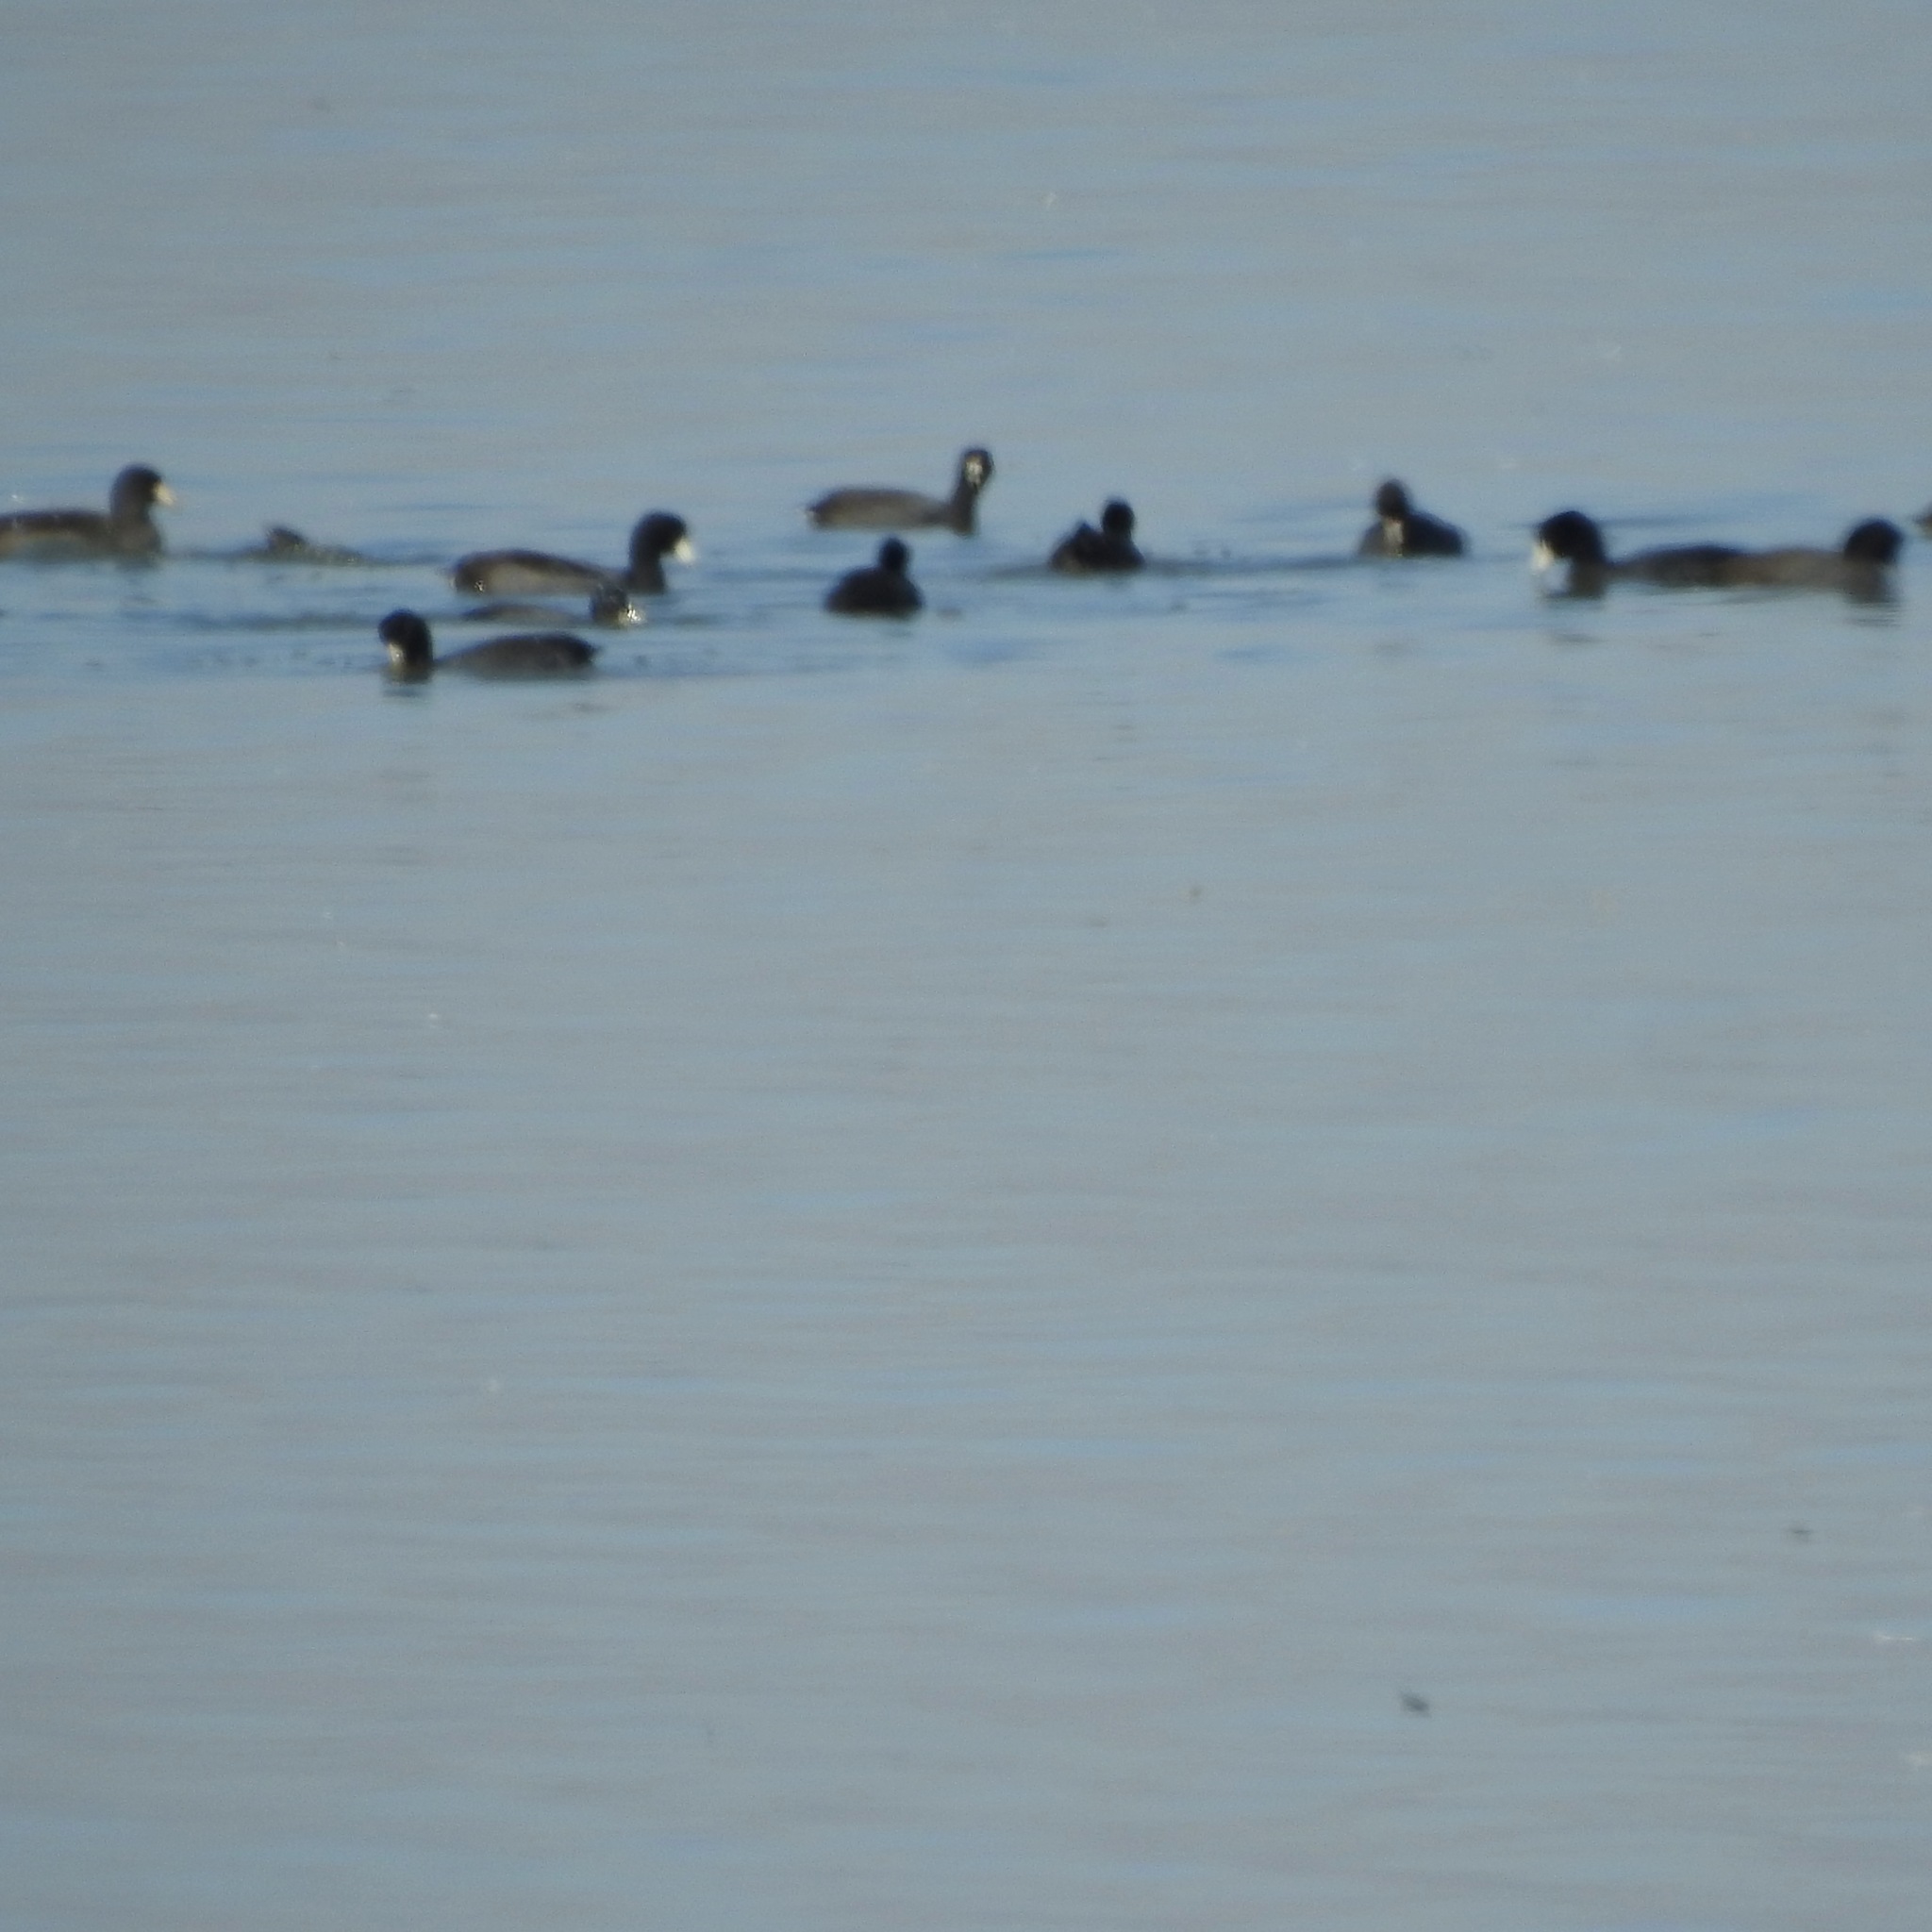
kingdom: Animalia
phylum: Chordata
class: Aves
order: Gruiformes
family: Rallidae
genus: Fulica
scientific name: Fulica americana
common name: American coot
